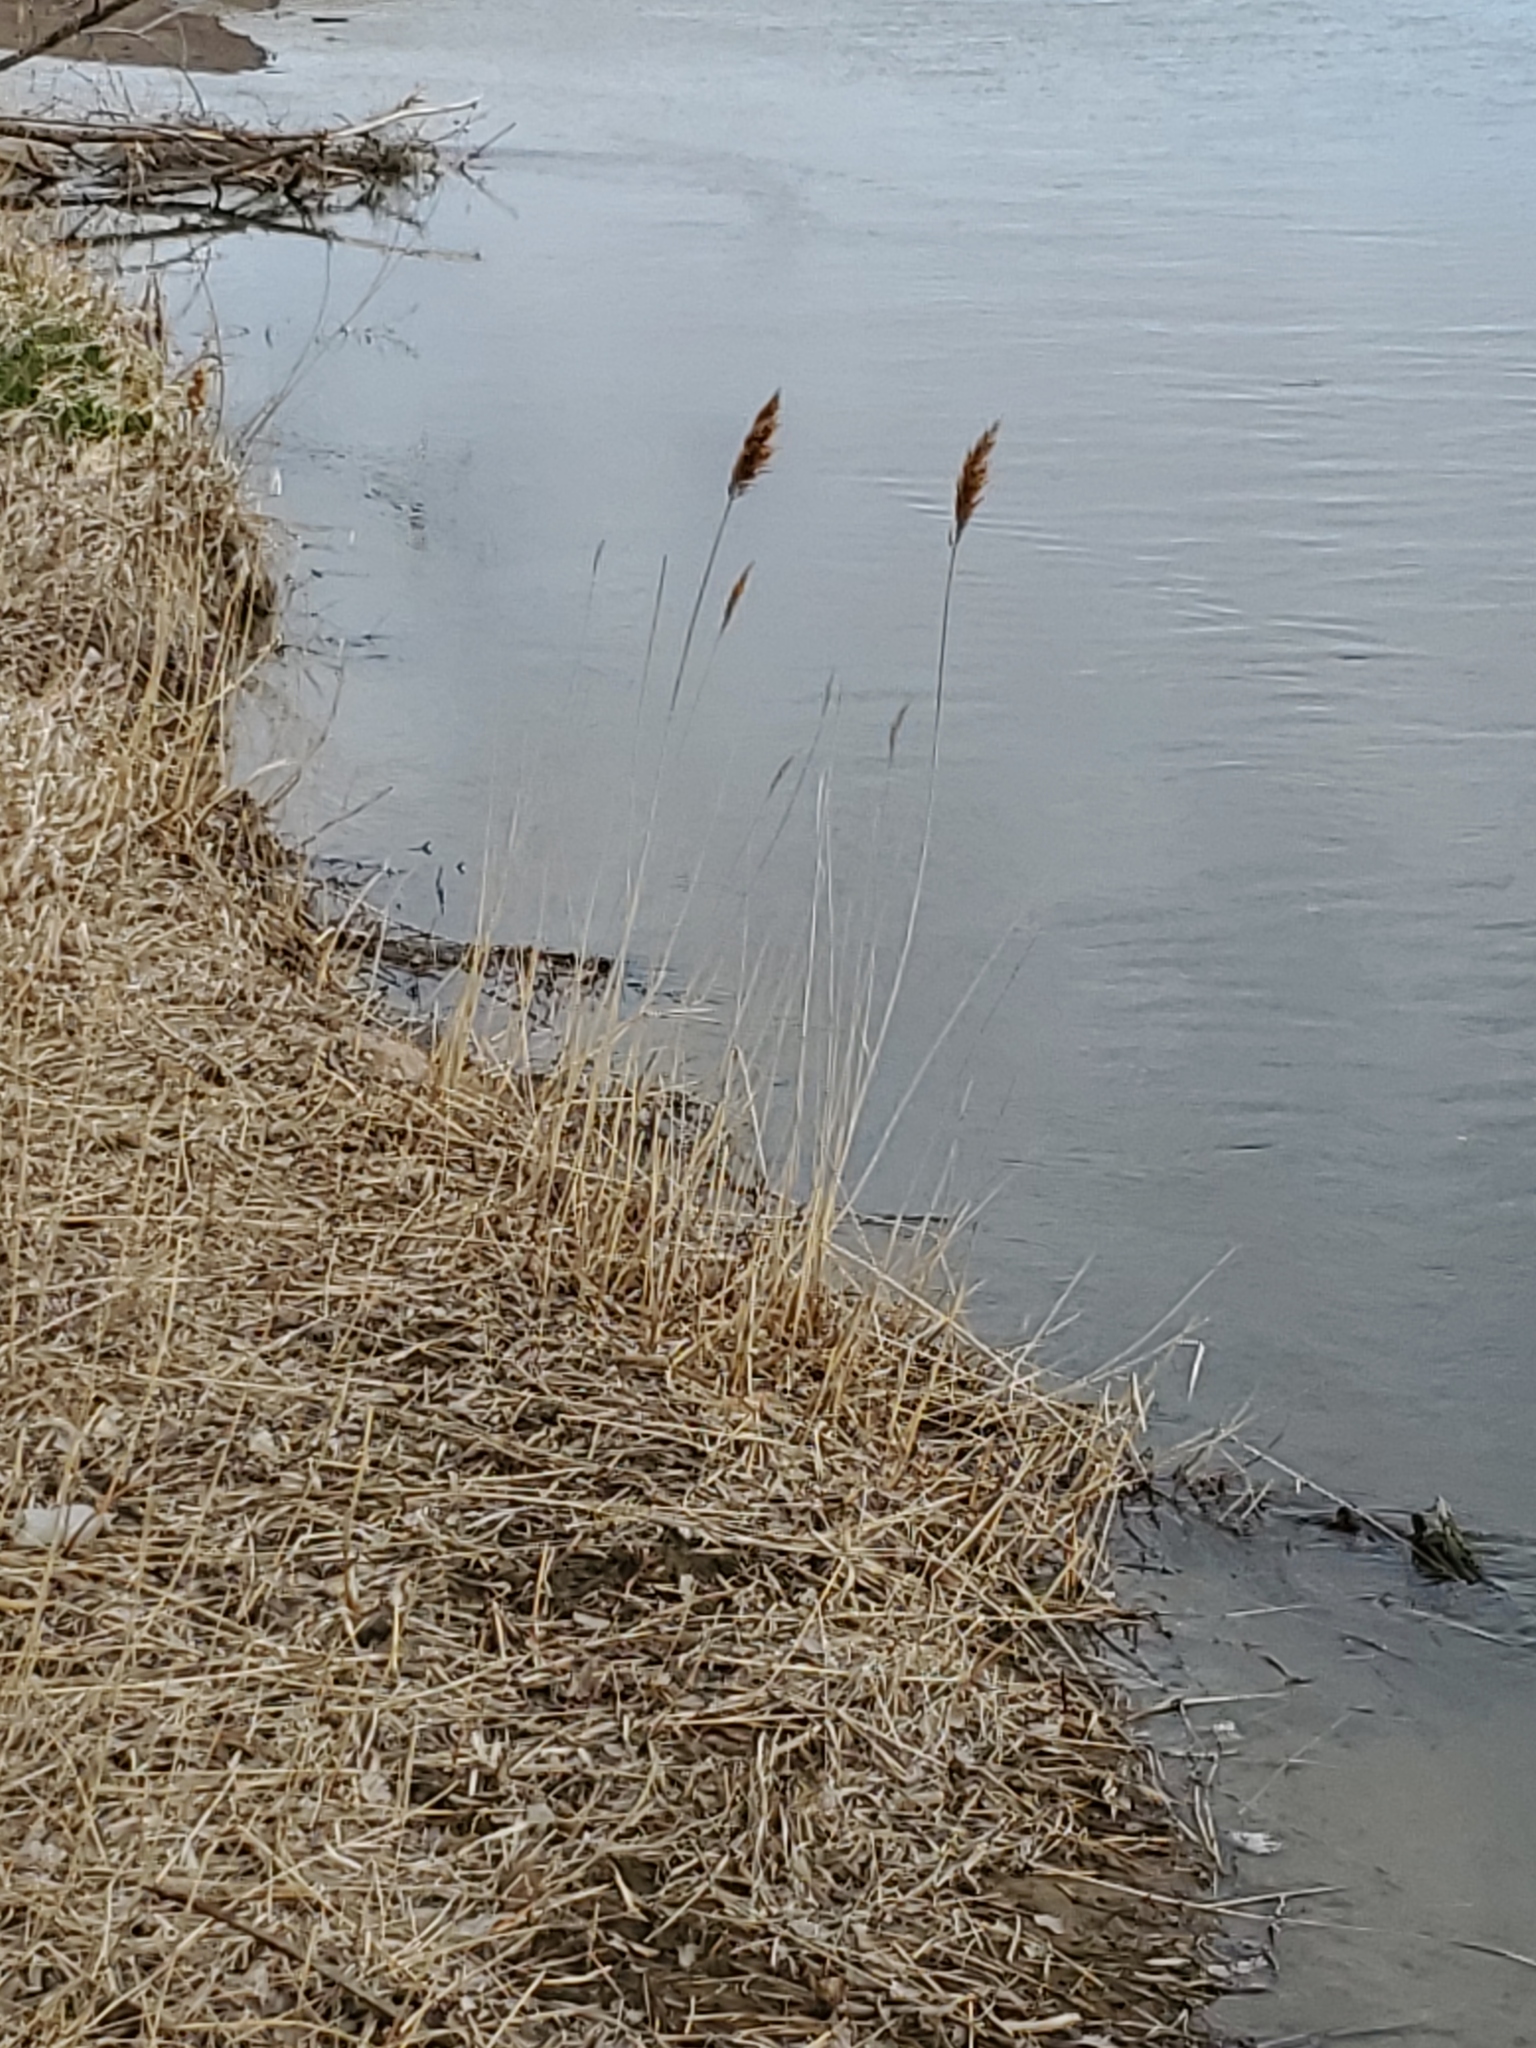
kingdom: Plantae
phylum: Tracheophyta
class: Liliopsida
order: Poales
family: Poaceae
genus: Phragmites
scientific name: Phragmites australis
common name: Common reed
